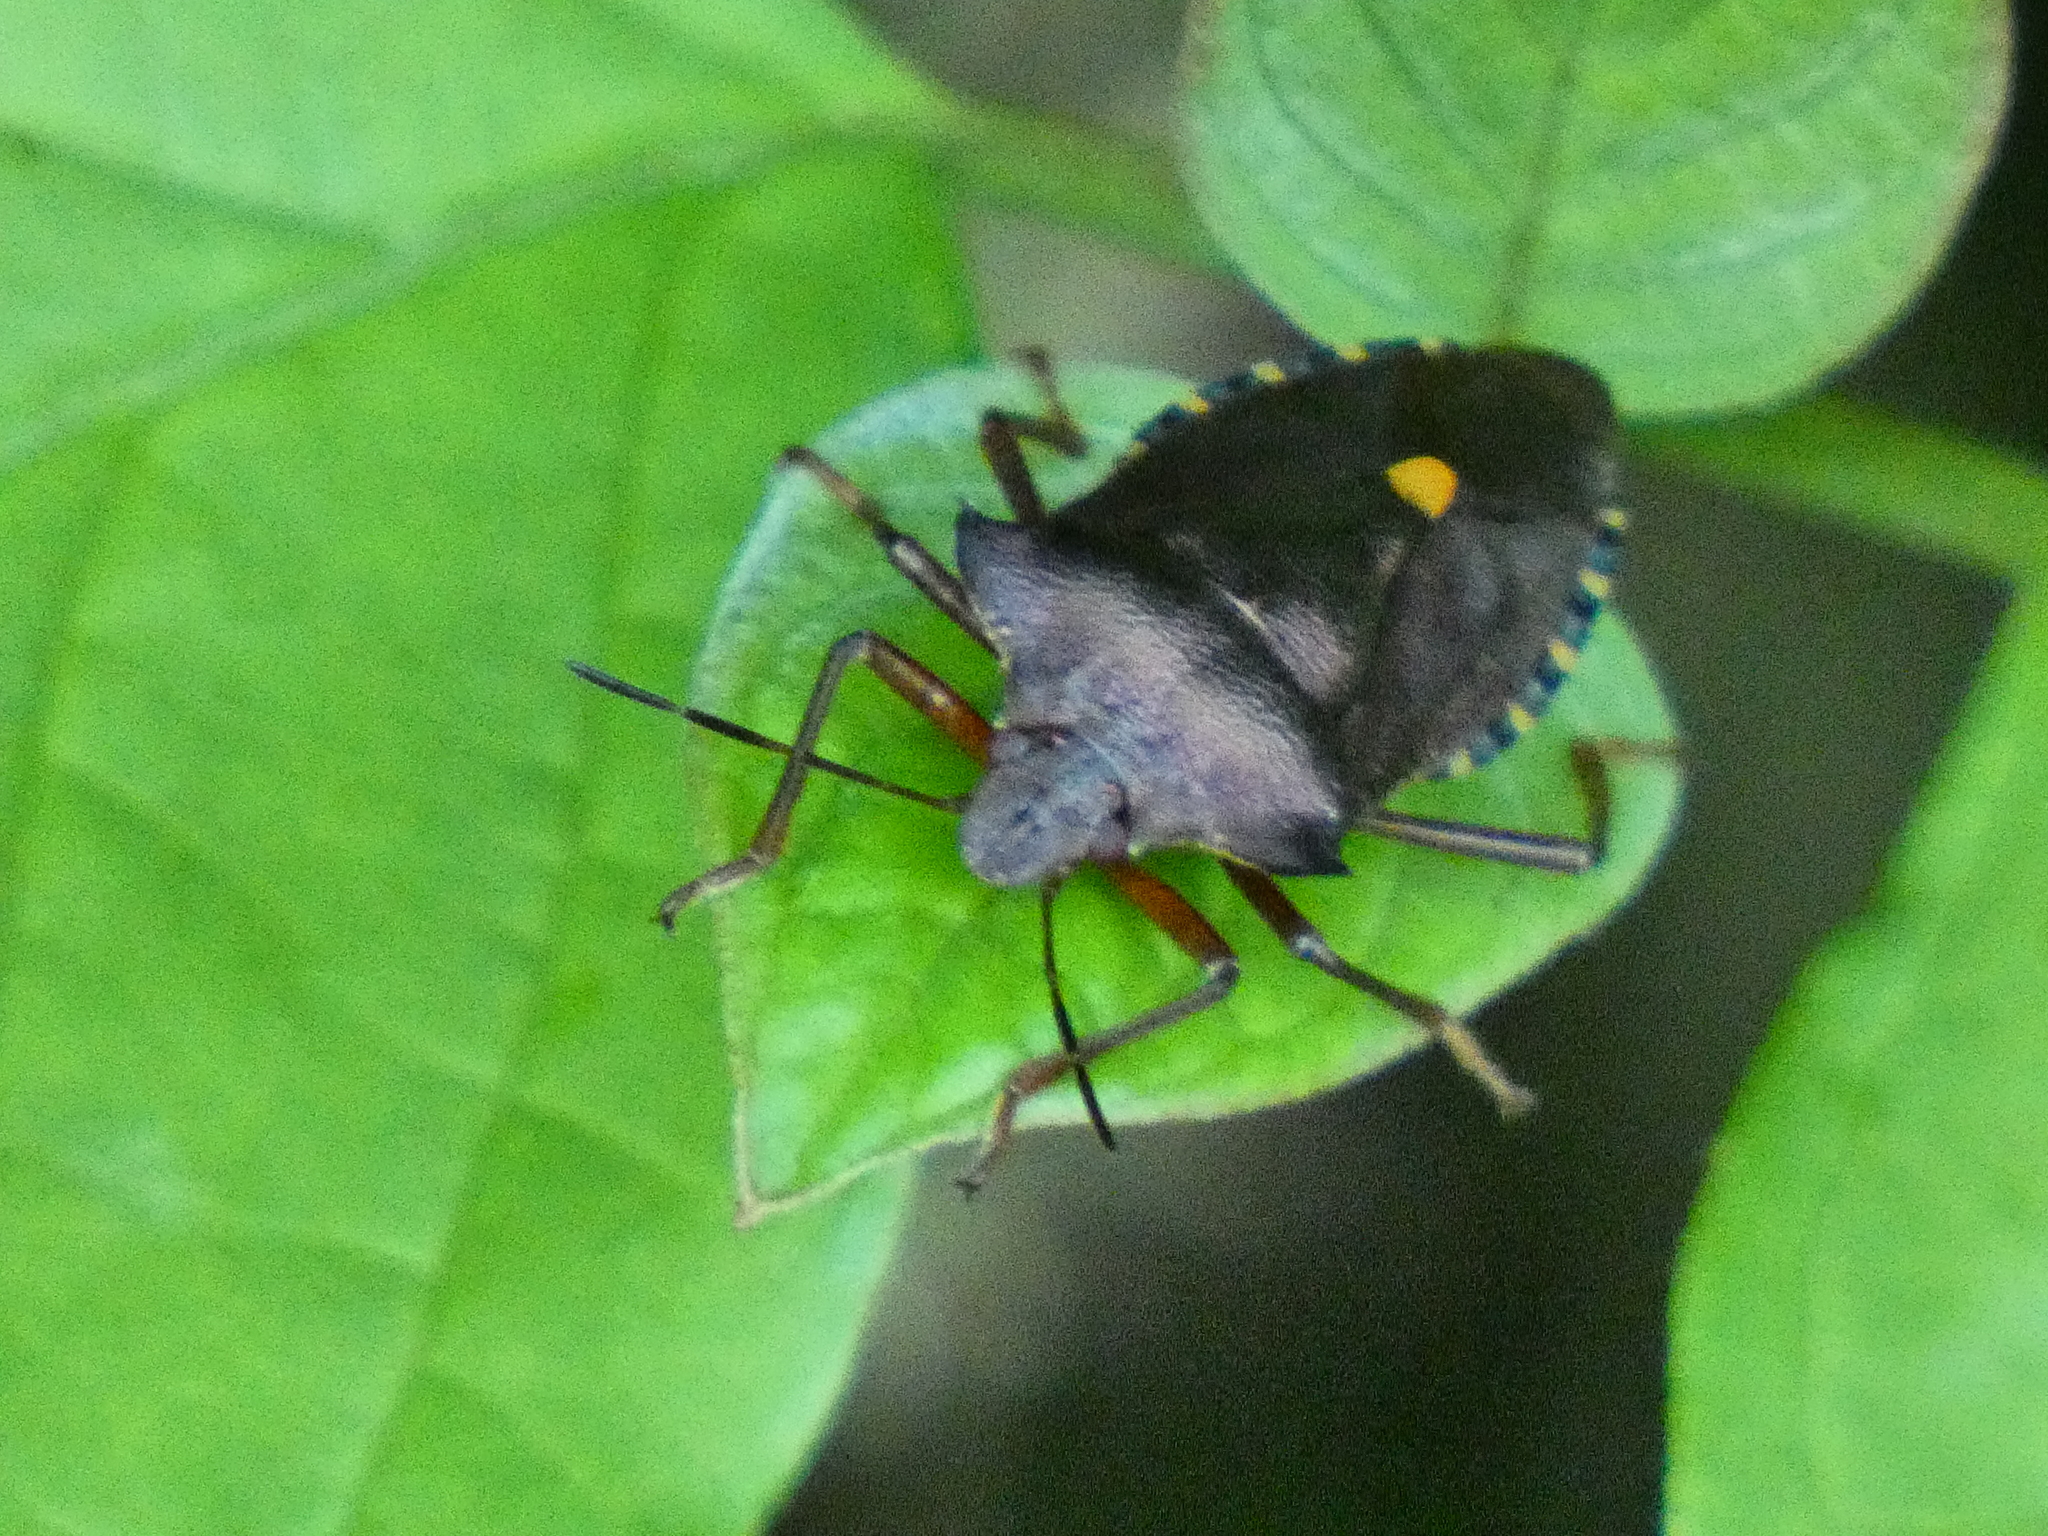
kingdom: Animalia
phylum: Arthropoda
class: Insecta
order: Hemiptera
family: Pentatomidae
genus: Pentatoma
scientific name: Pentatoma rufipes
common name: Forest bug
